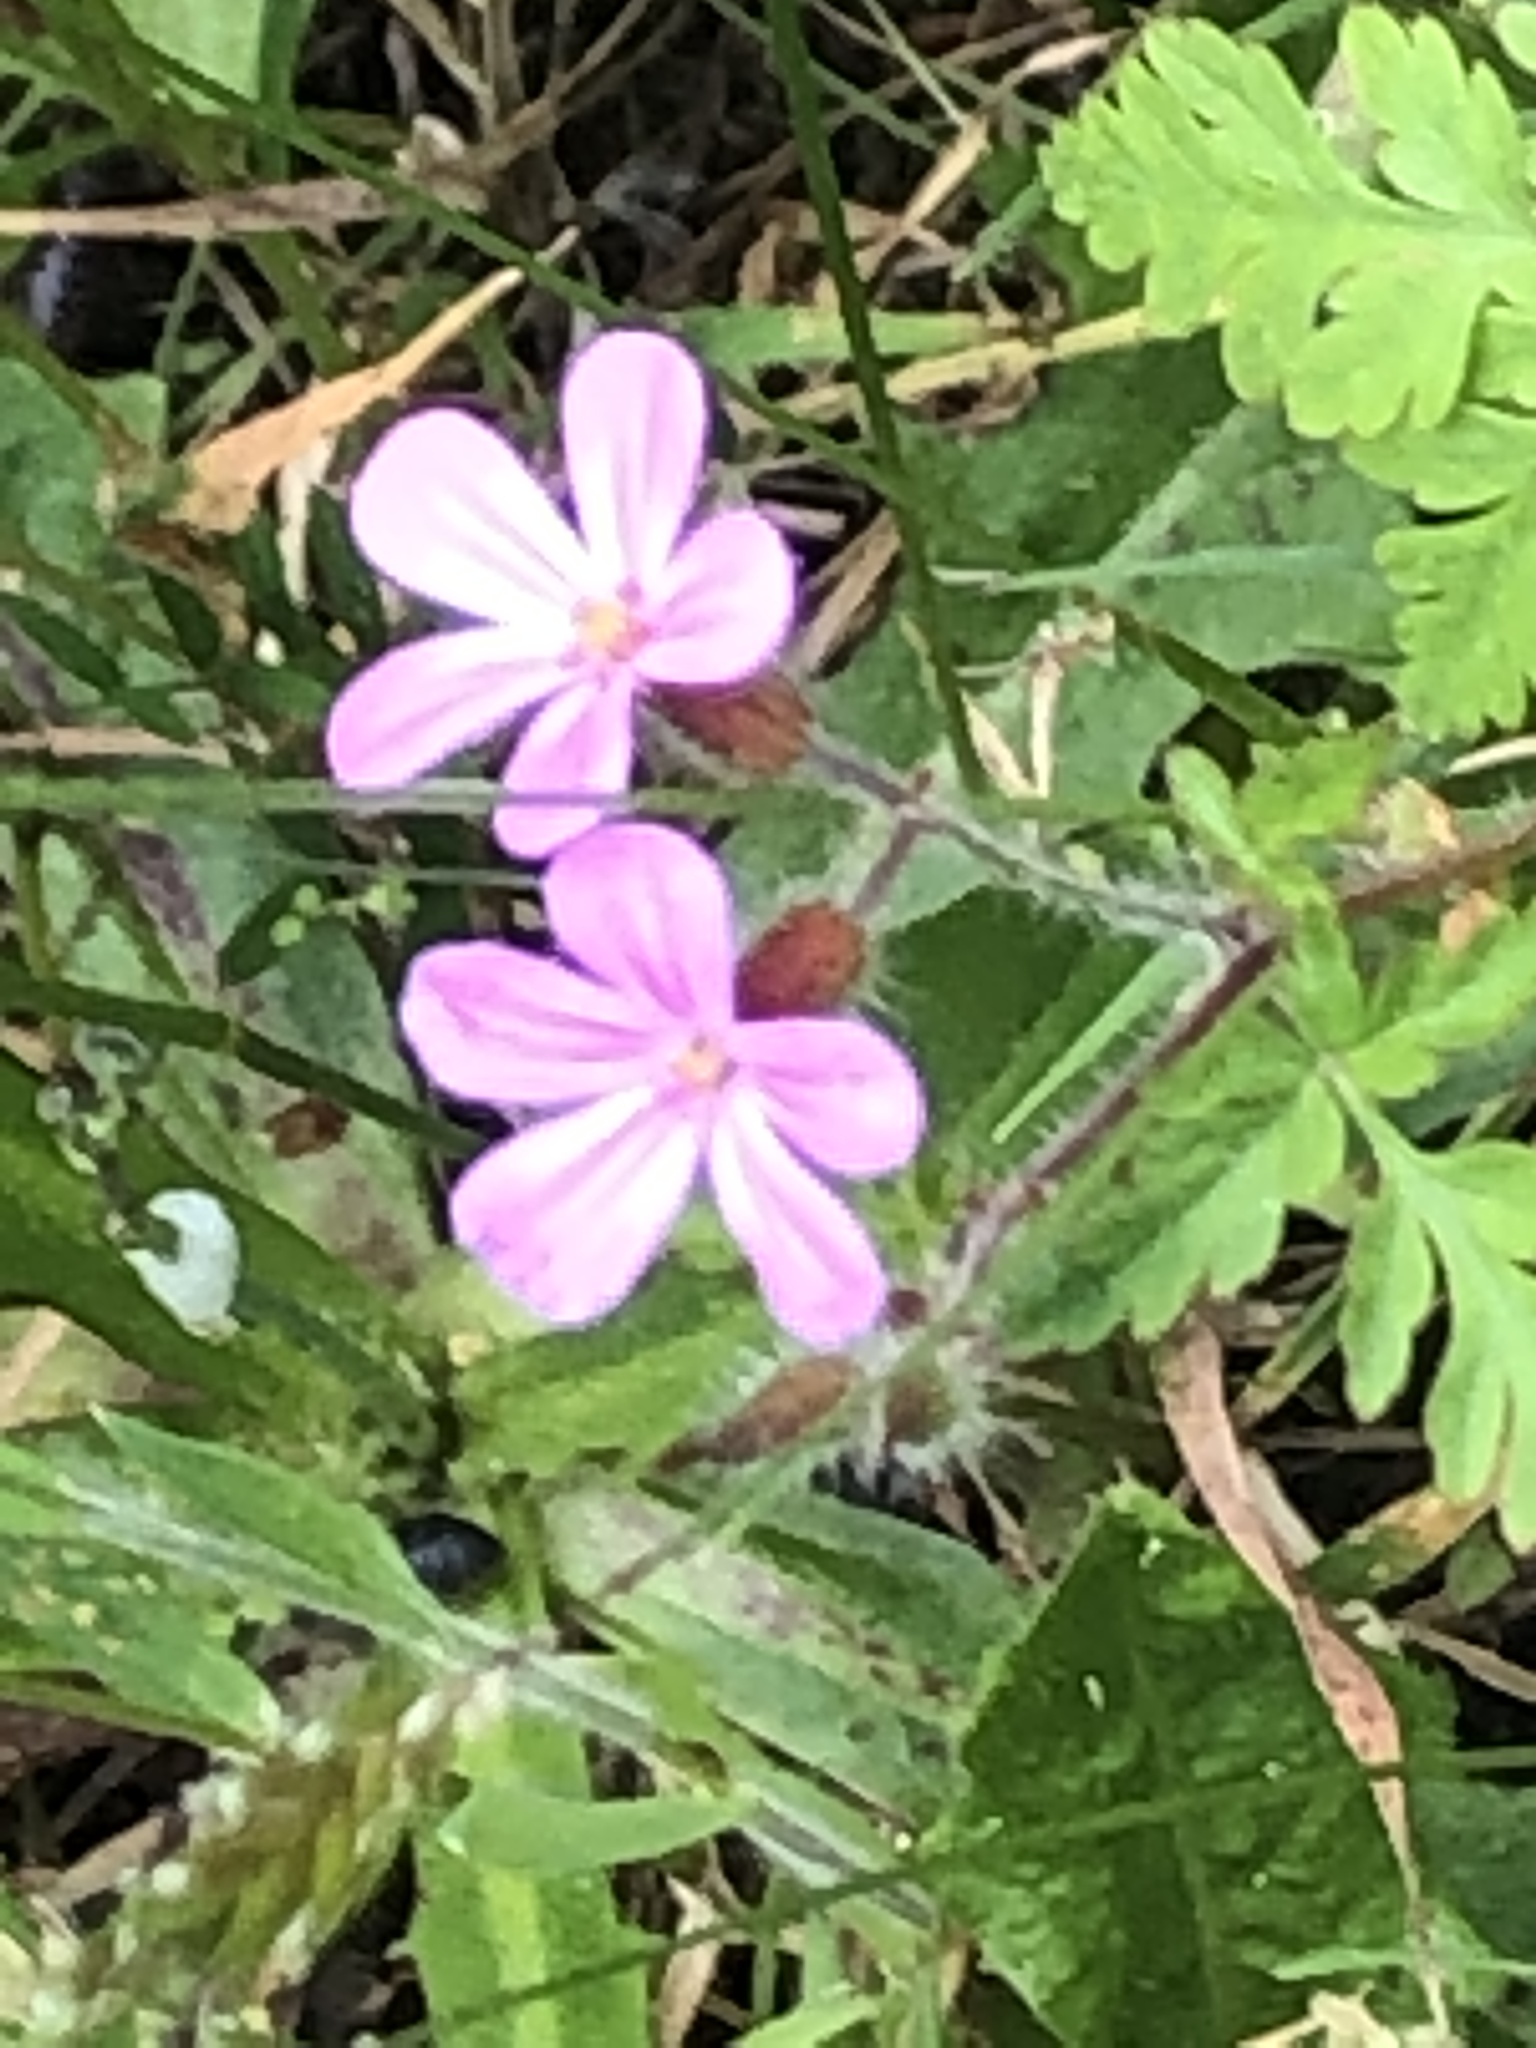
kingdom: Plantae
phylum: Tracheophyta
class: Magnoliopsida
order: Geraniales
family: Geraniaceae
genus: Geranium
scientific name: Geranium robertianum
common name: Herb-robert
